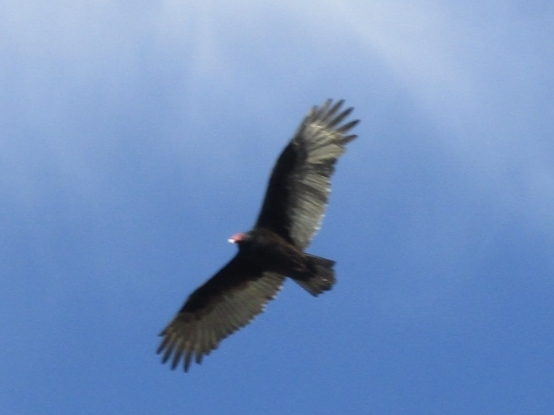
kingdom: Animalia
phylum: Chordata
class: Aves
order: Accipitriformes
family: Cathartidae
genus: Cathartes
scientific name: Cathartes aura
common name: Turkey vulture
